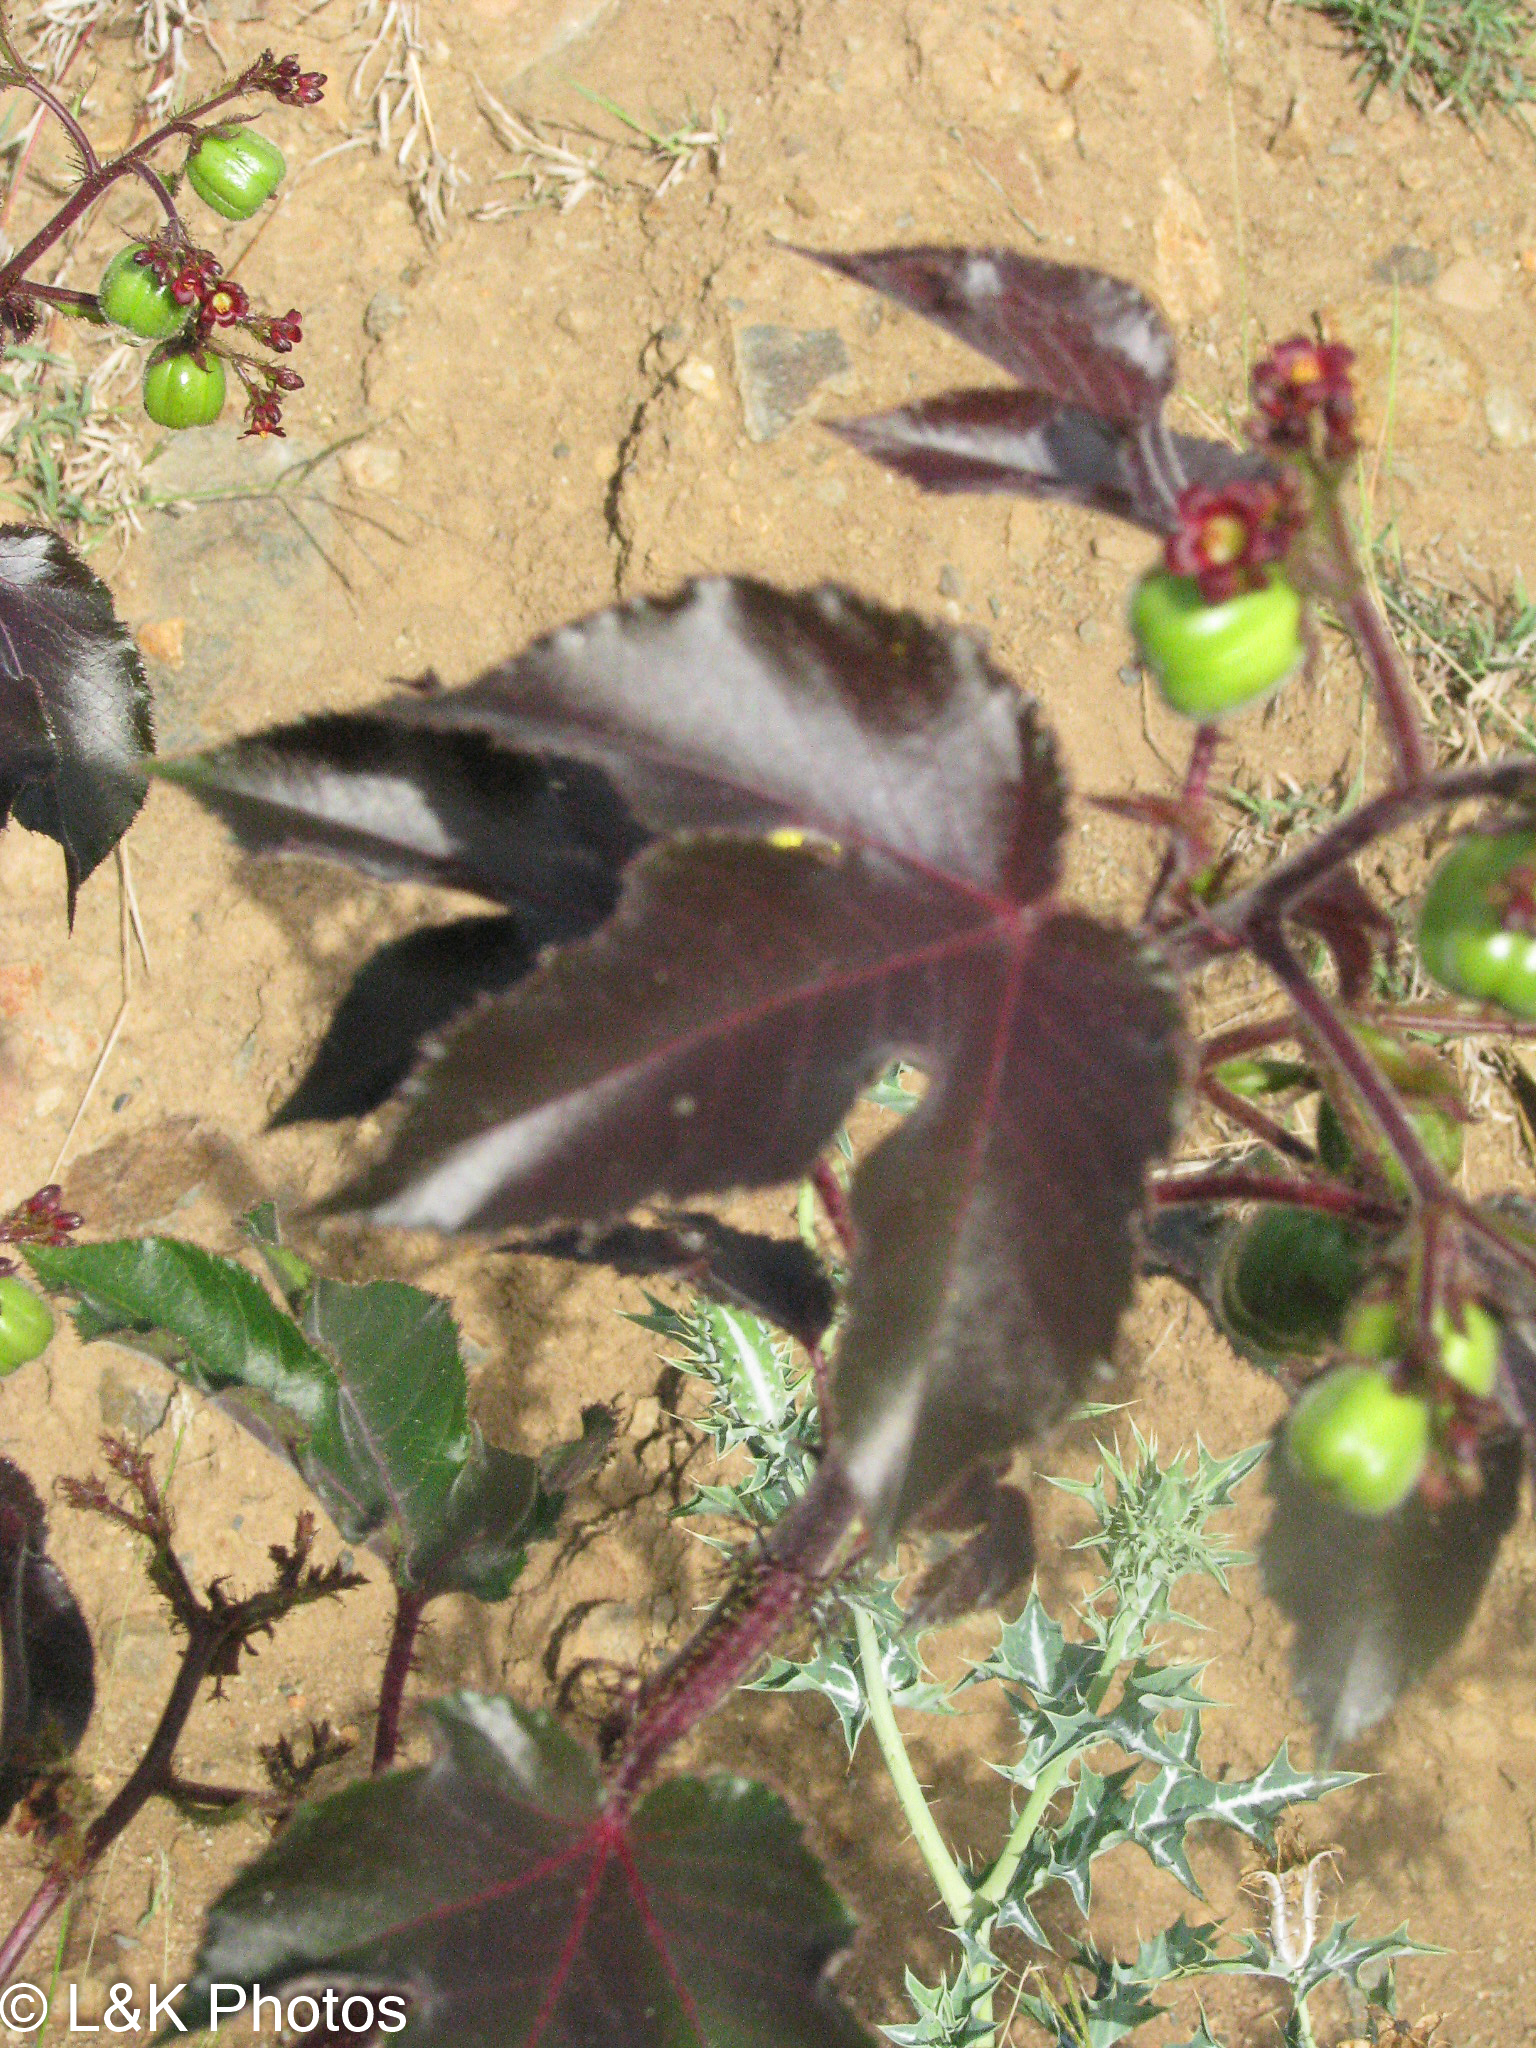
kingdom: Plantae
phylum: Tracheophyta
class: Magnoliopsida
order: Malpighiales
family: Euphorbiaceae
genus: Jatropha
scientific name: Jatropha gossypiifolia
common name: Bellyache bush
